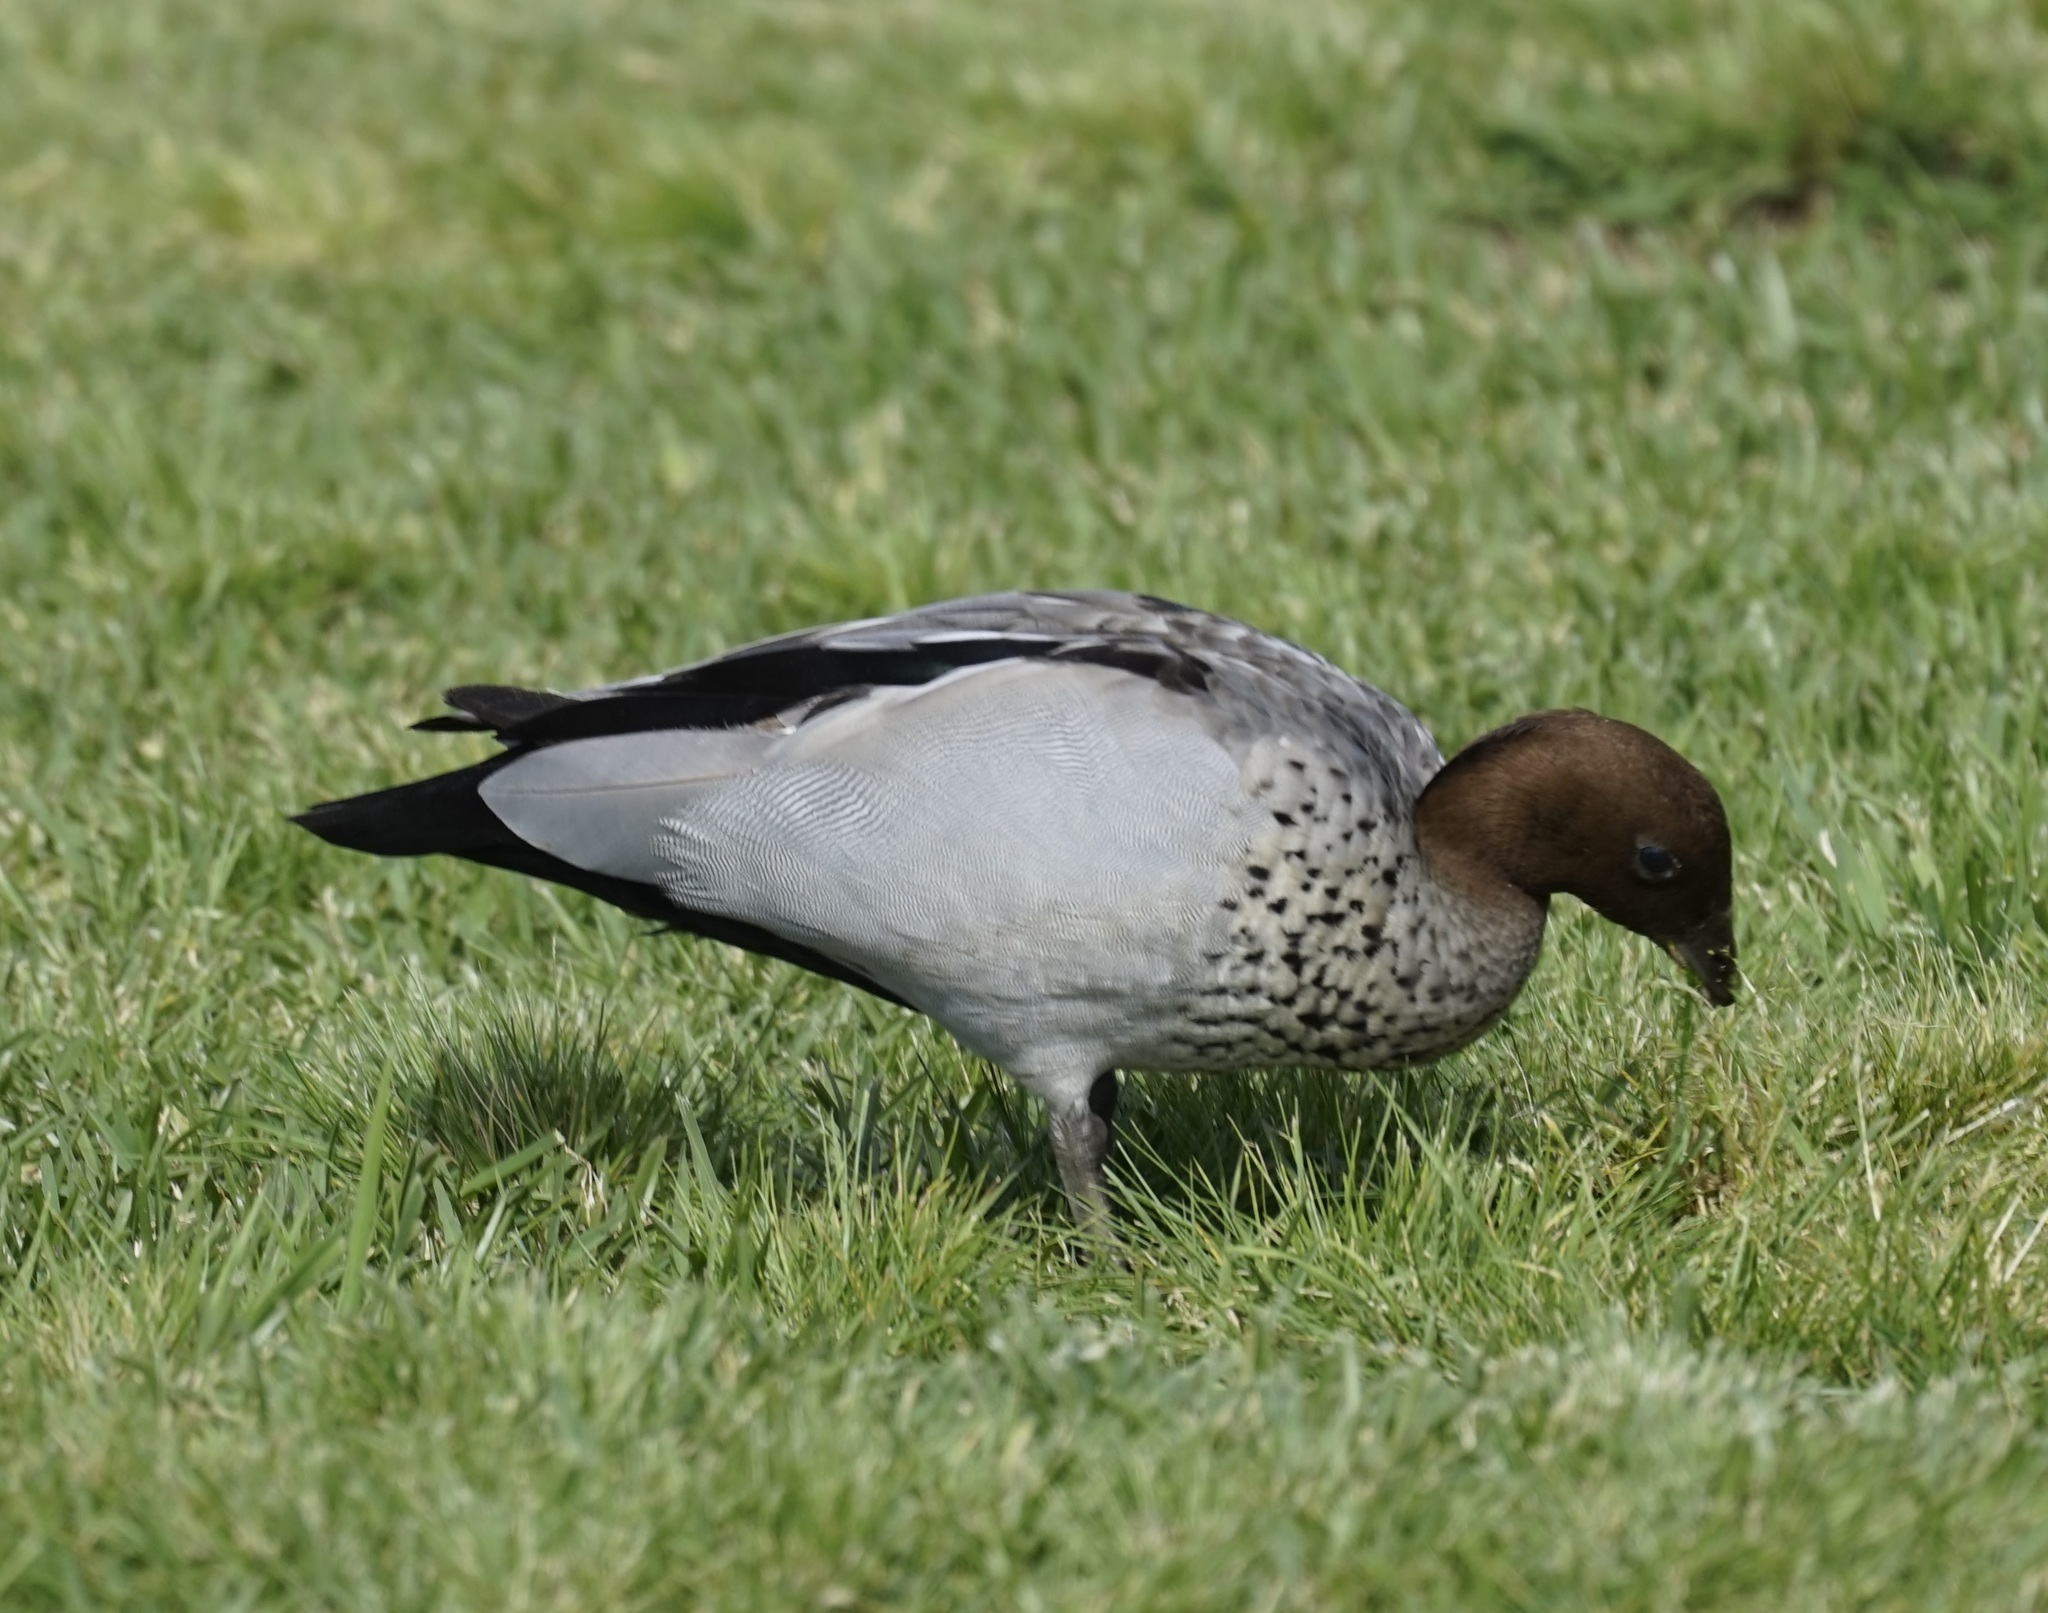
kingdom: Animalia
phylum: Chordata
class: Aves
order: Anseriformes
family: Anatidae
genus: Chenonetta
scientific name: Chenonetta jubata
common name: Maned duck
